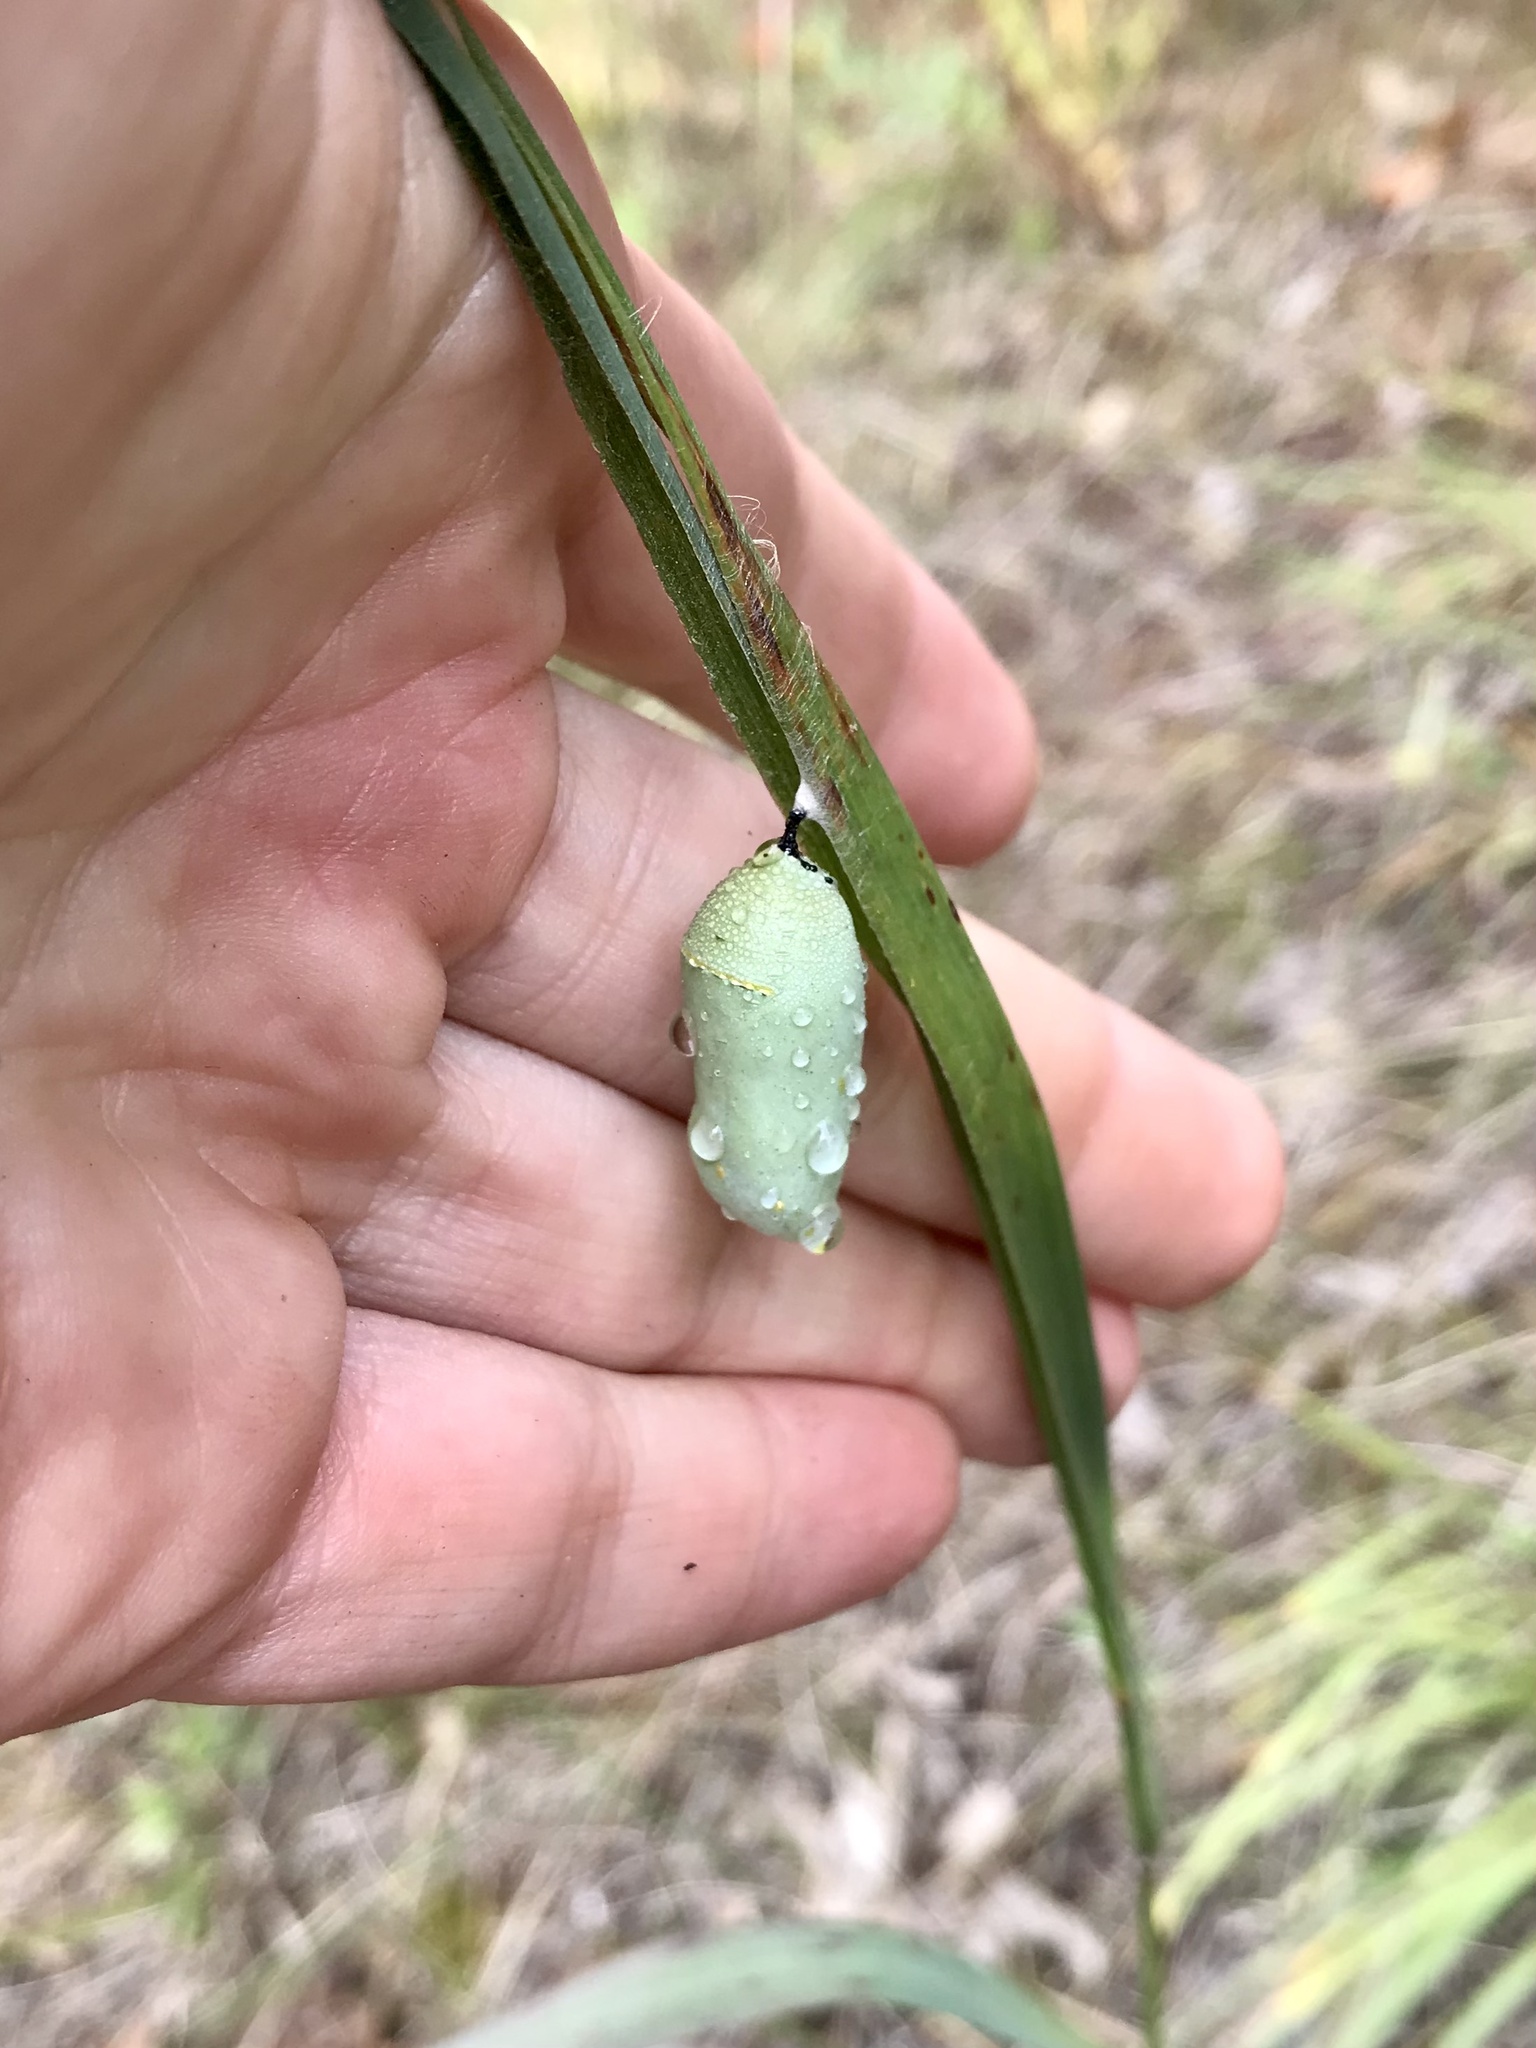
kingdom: Animalia
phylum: Arthropoda
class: Insecta
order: Lepidoptera
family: Nymphalidae
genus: Danaus
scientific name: Danaus plexippus
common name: Monarch
